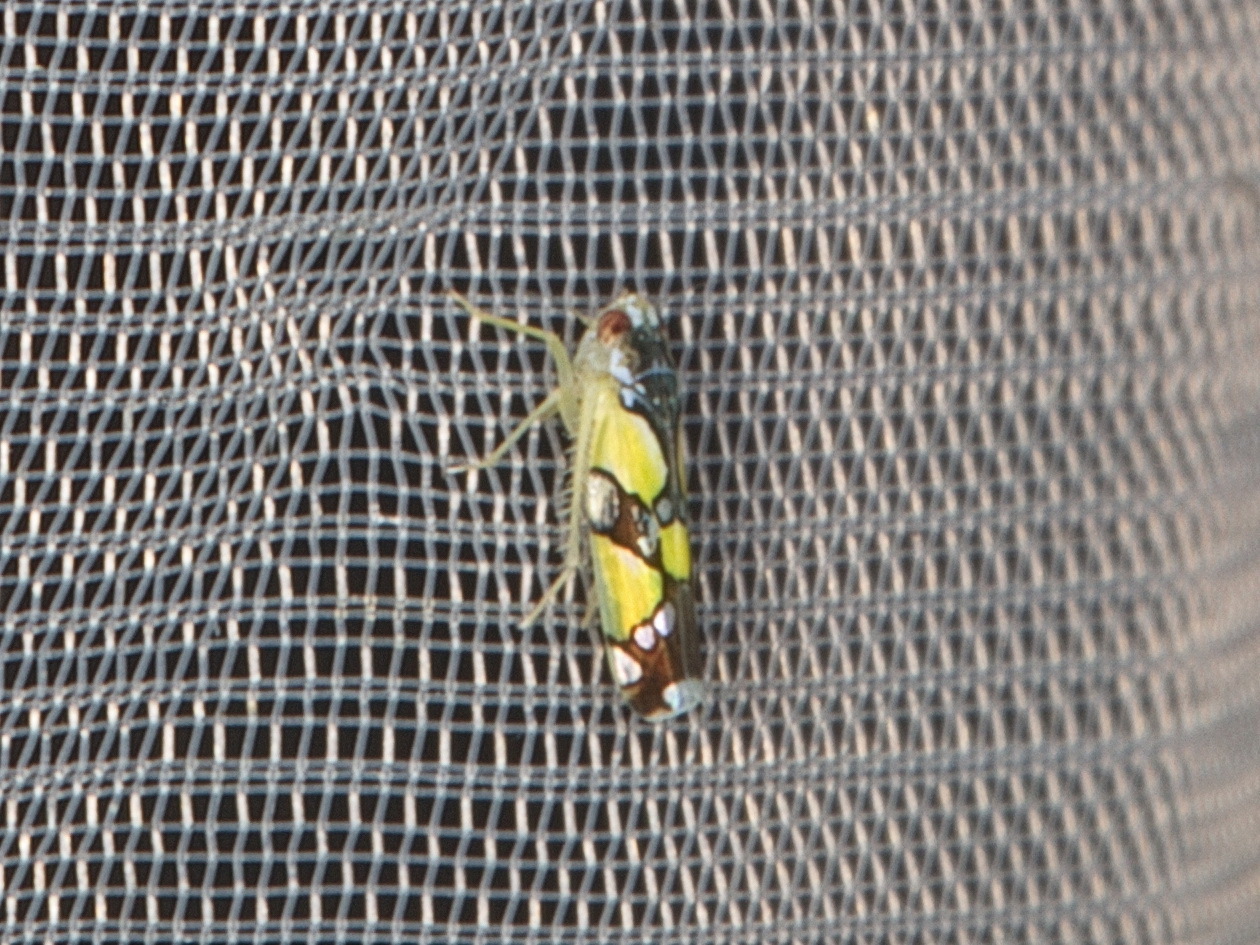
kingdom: Animalia
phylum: Arthropoda
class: Insecta
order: Hemiptera
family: Cicadellidae
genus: Protalebrella
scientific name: Protalebrella brasiliensis
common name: Brasilian leafhopper
